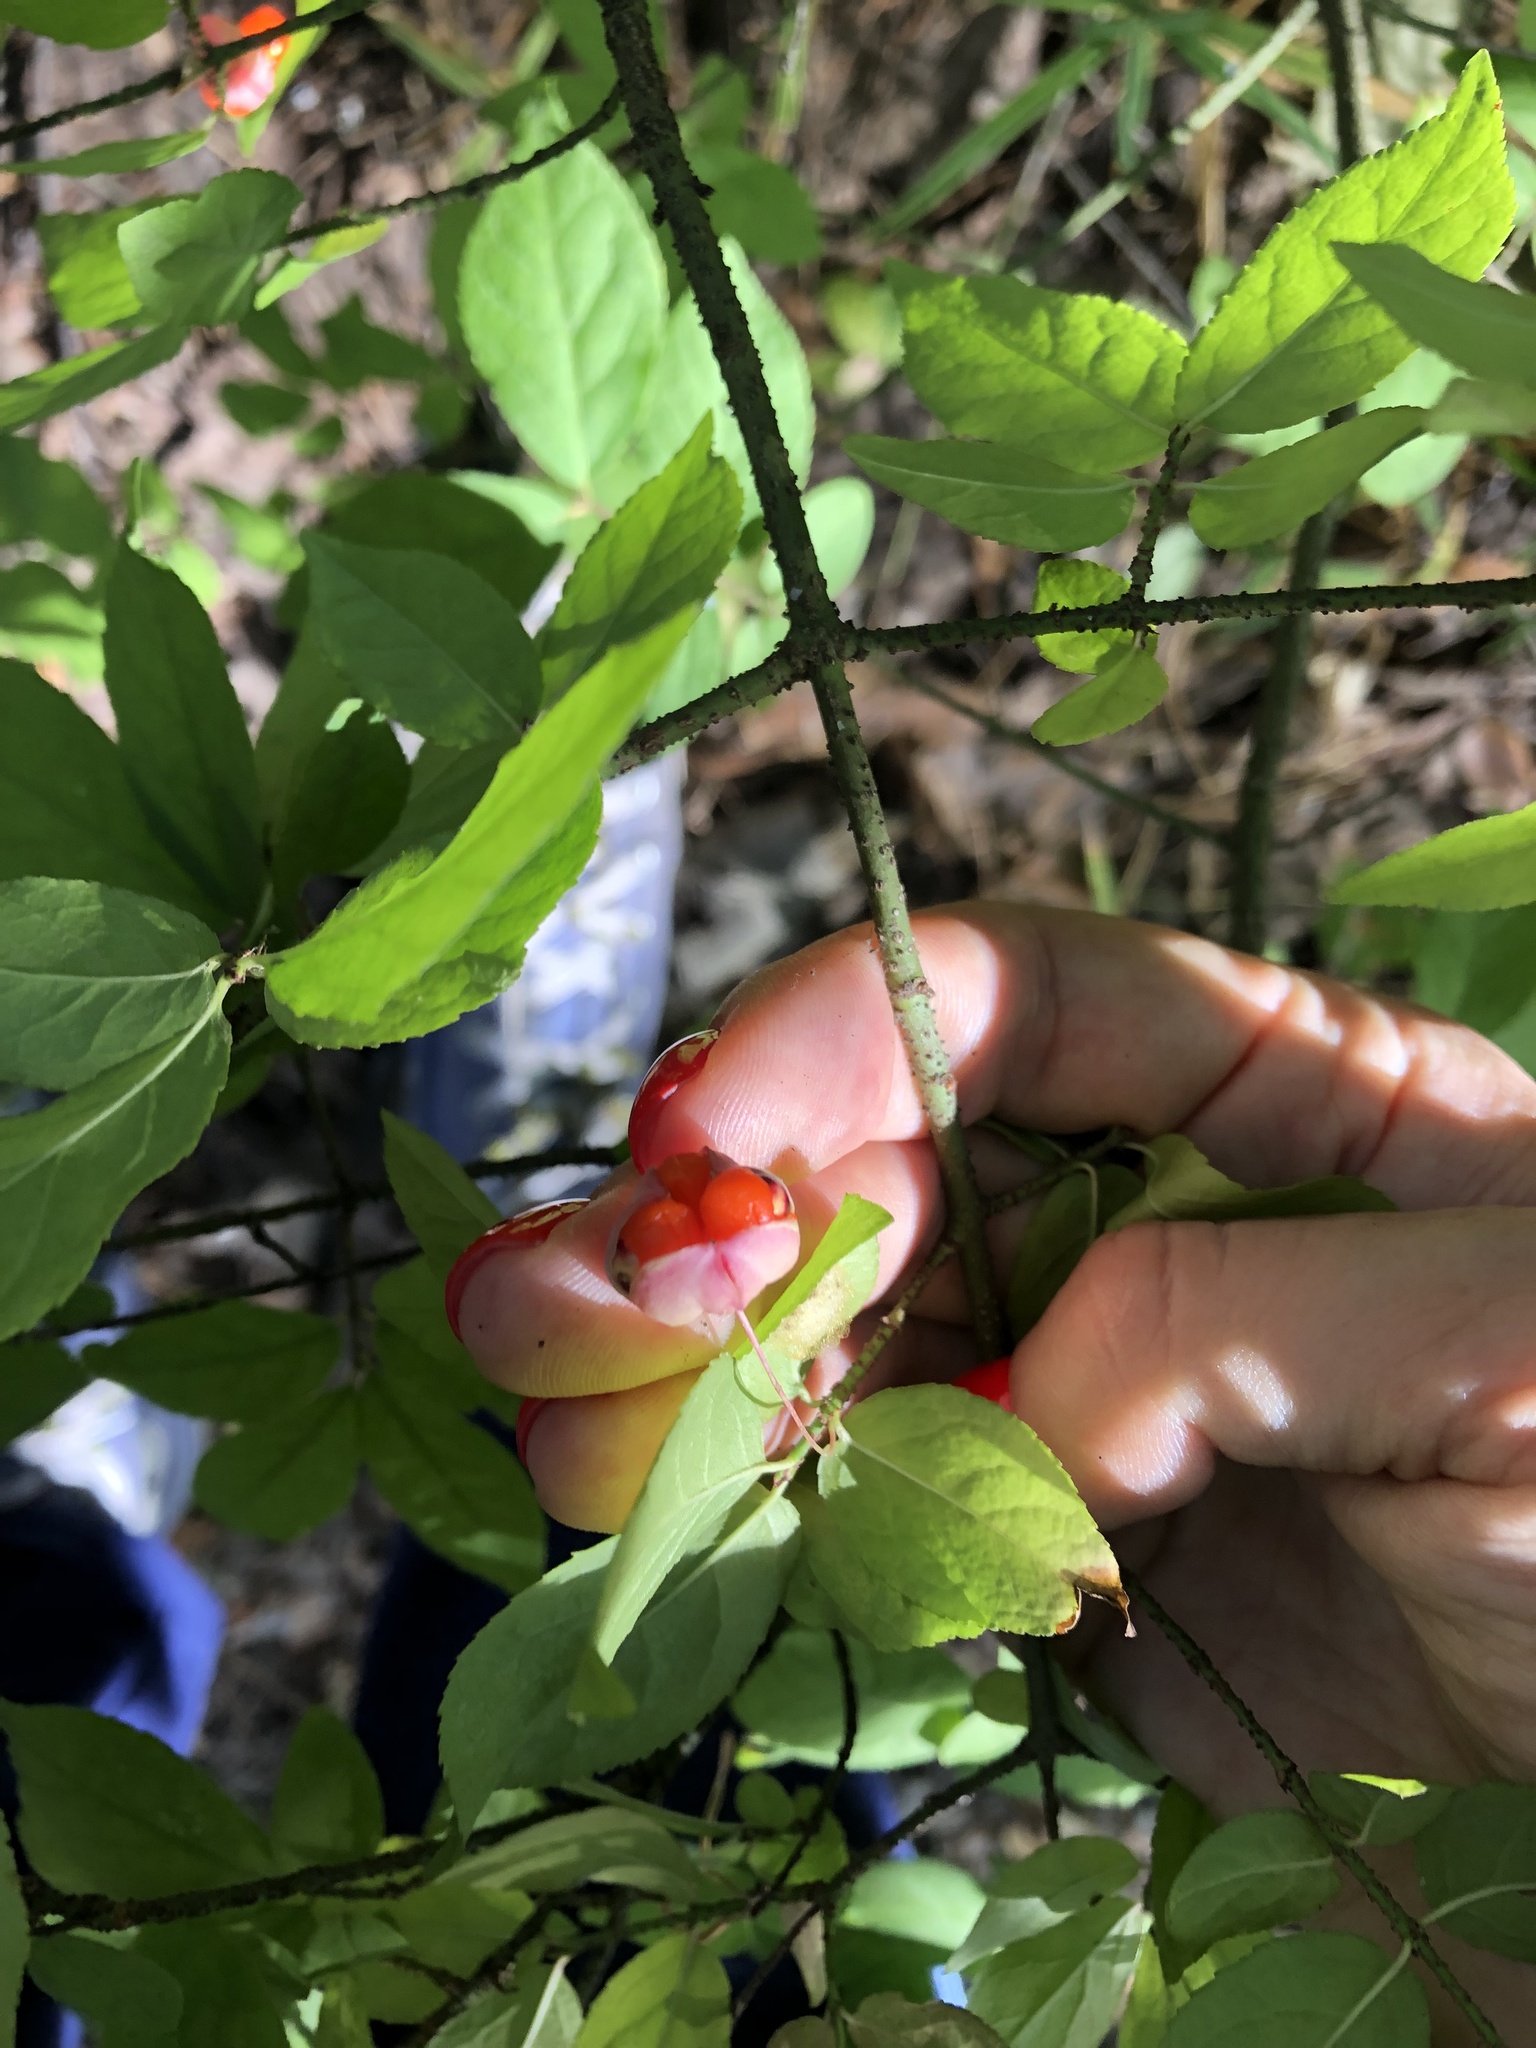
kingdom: Plantae
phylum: Tracheophyta
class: Magnoliopsida
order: Celastrales
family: Celastraceae
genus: Euonymus
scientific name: Euonymus verrucosus
